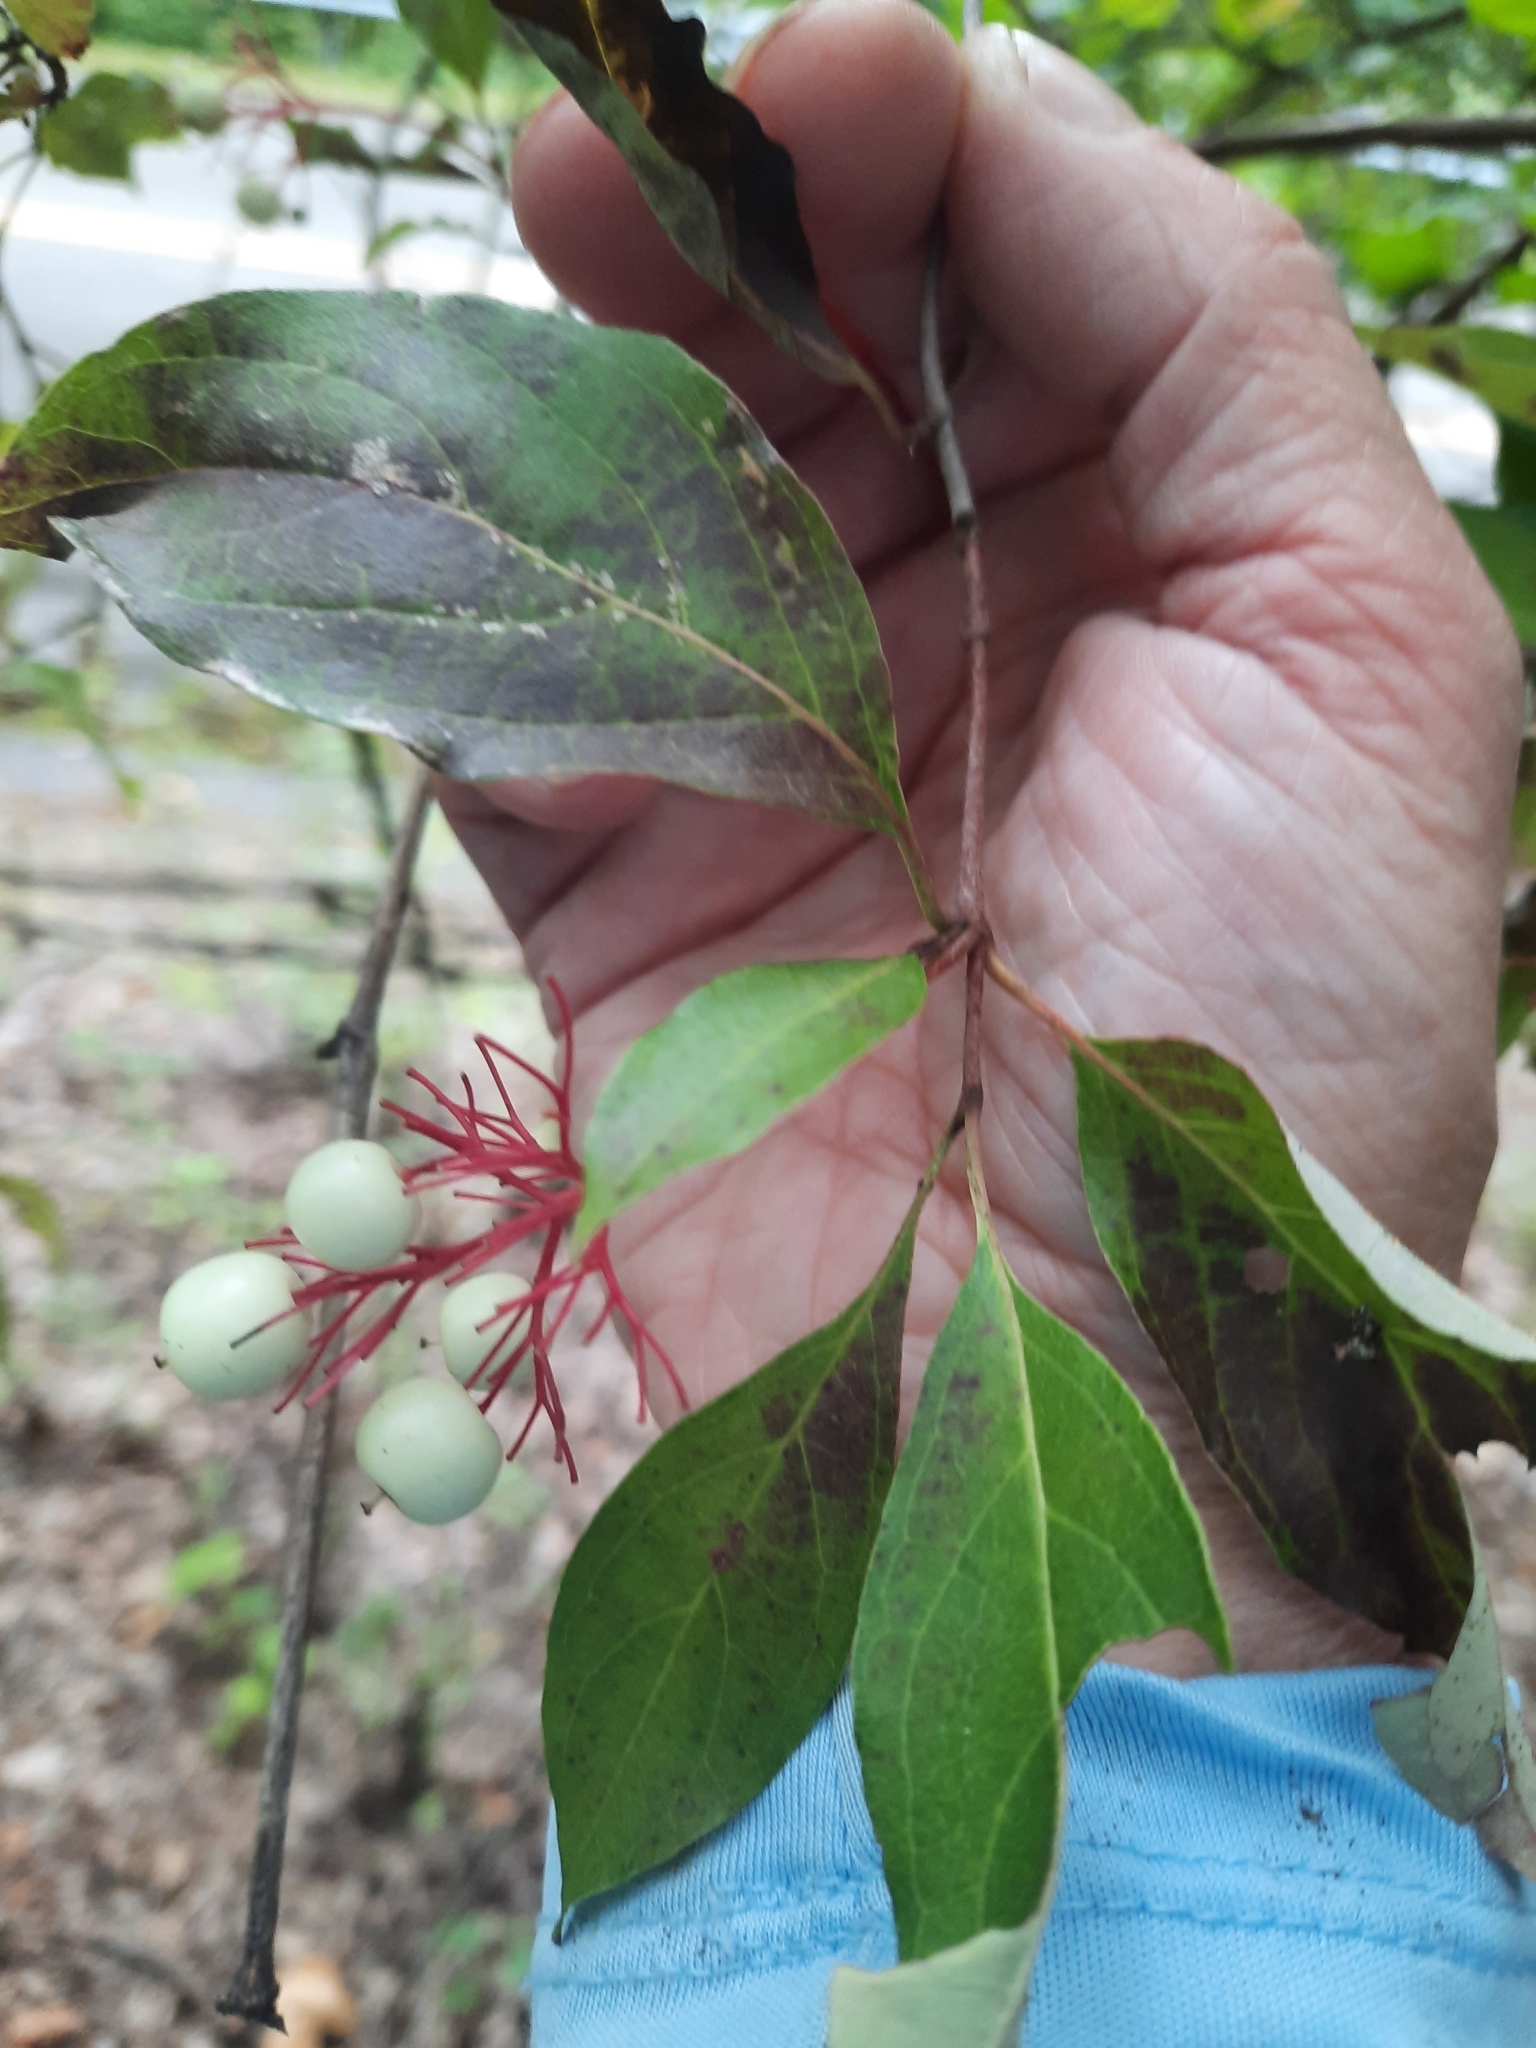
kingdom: Plantae
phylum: Tracheophyta
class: Magnoliopsida
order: Cornales
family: Cornaceae
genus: Cornus
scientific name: Cornus racemosa
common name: Panicled dogwood
